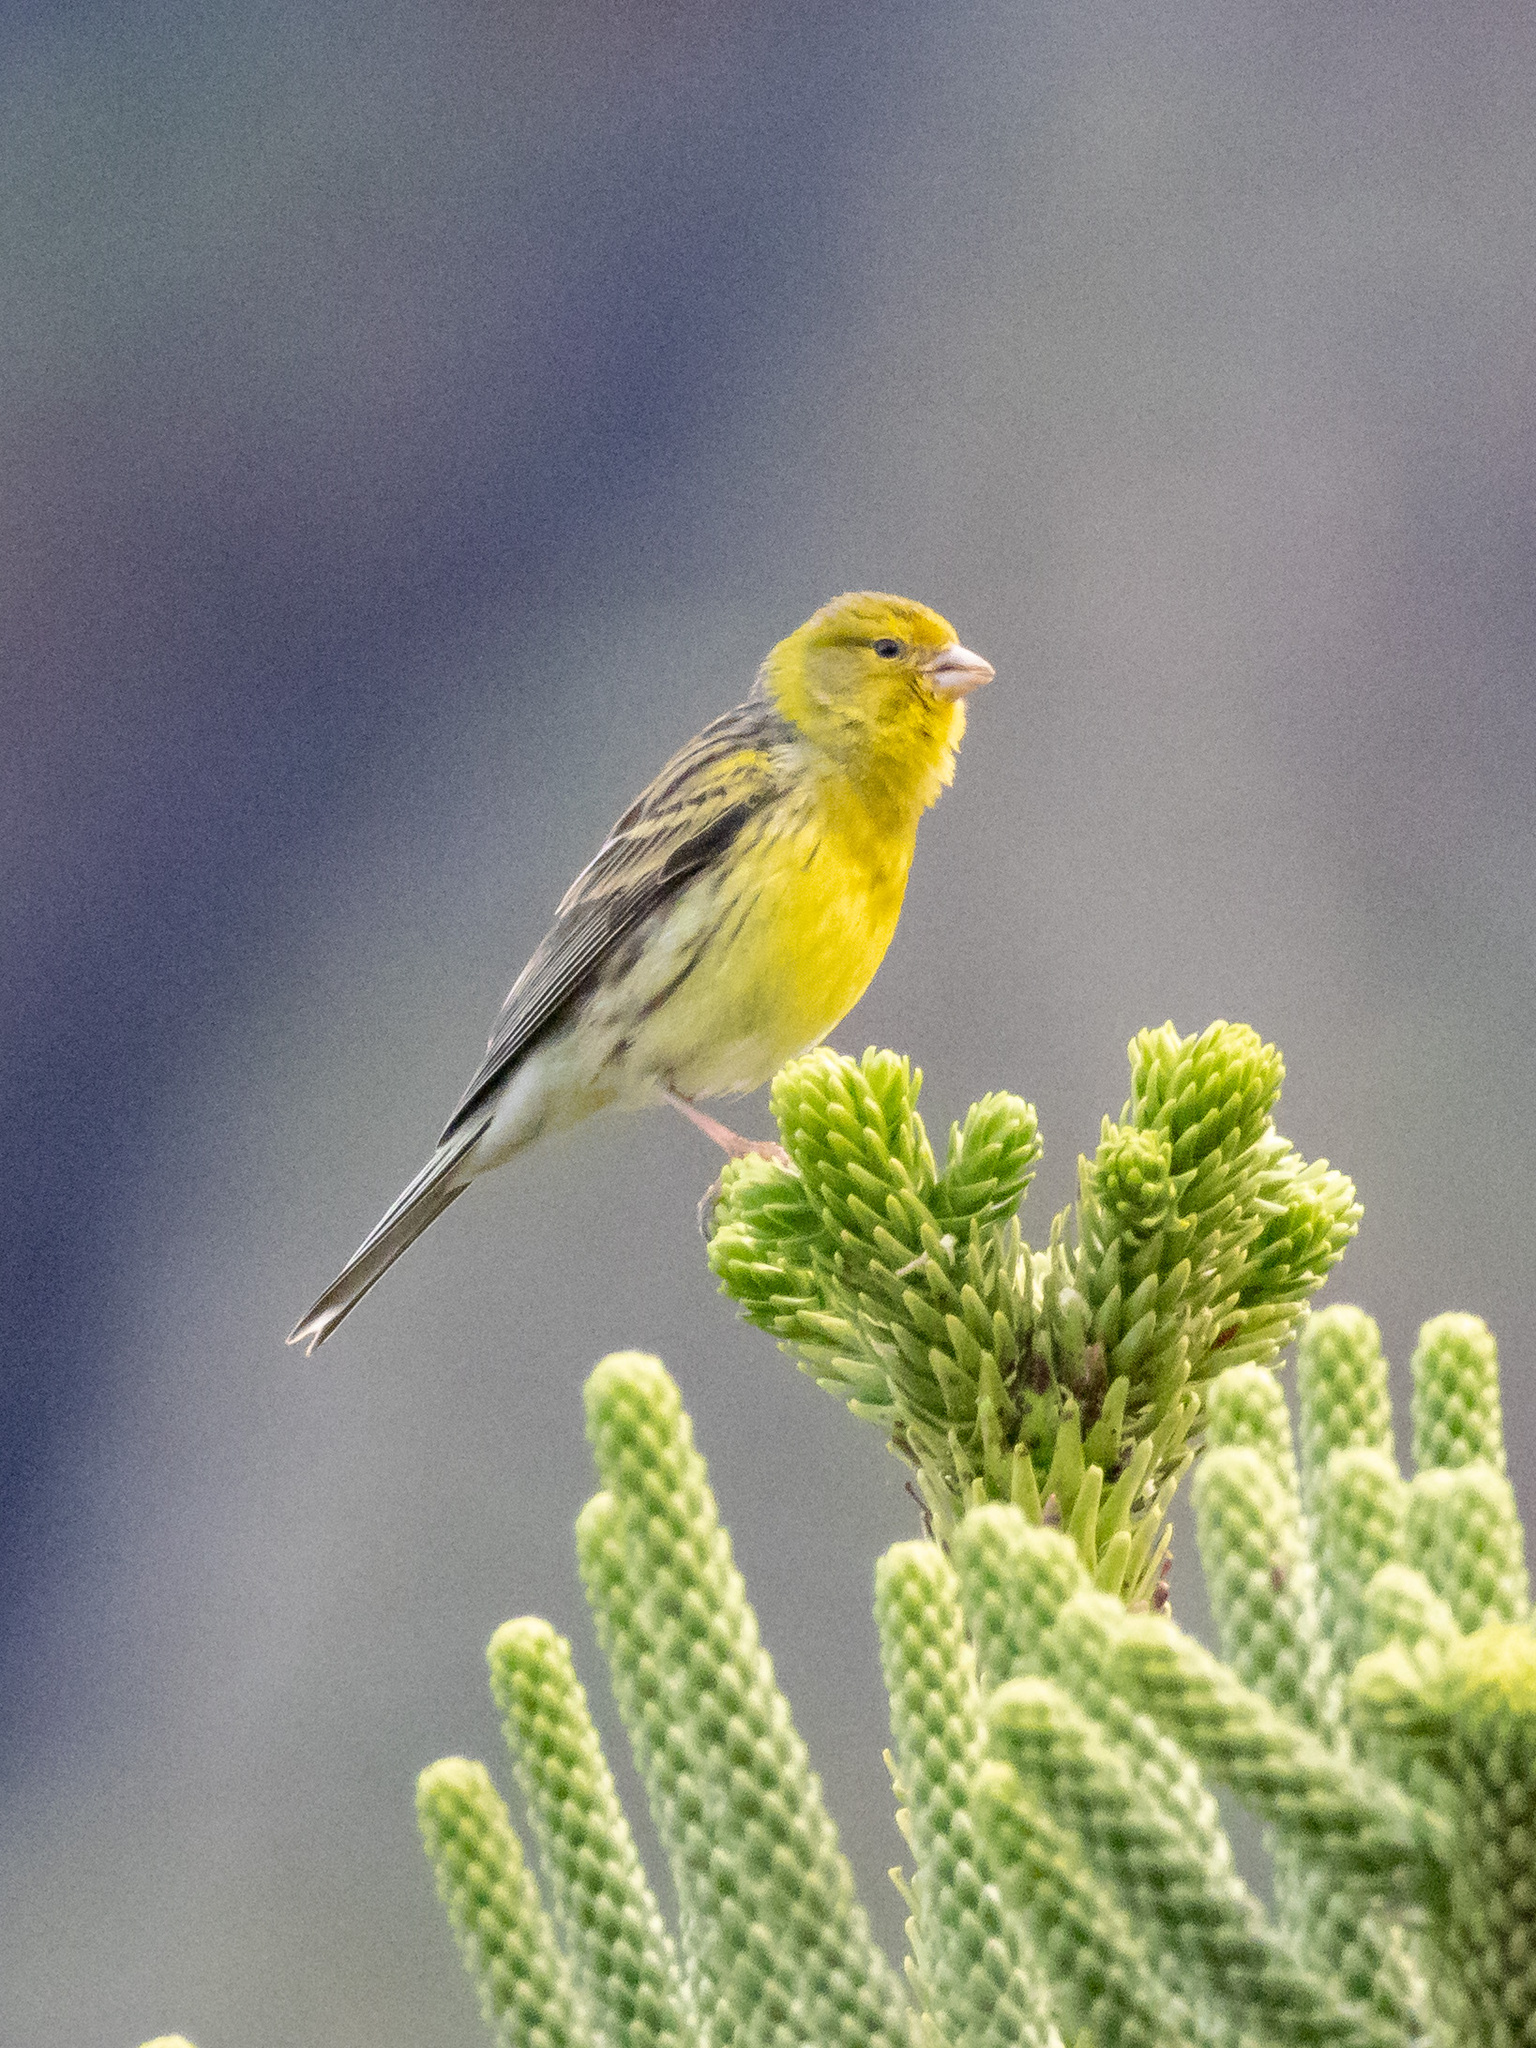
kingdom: Animalia
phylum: Chordata
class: Aves
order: Passeriformes
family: Fringillidae
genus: Serinus
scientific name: Serinus canaria
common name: Atlantic canary
